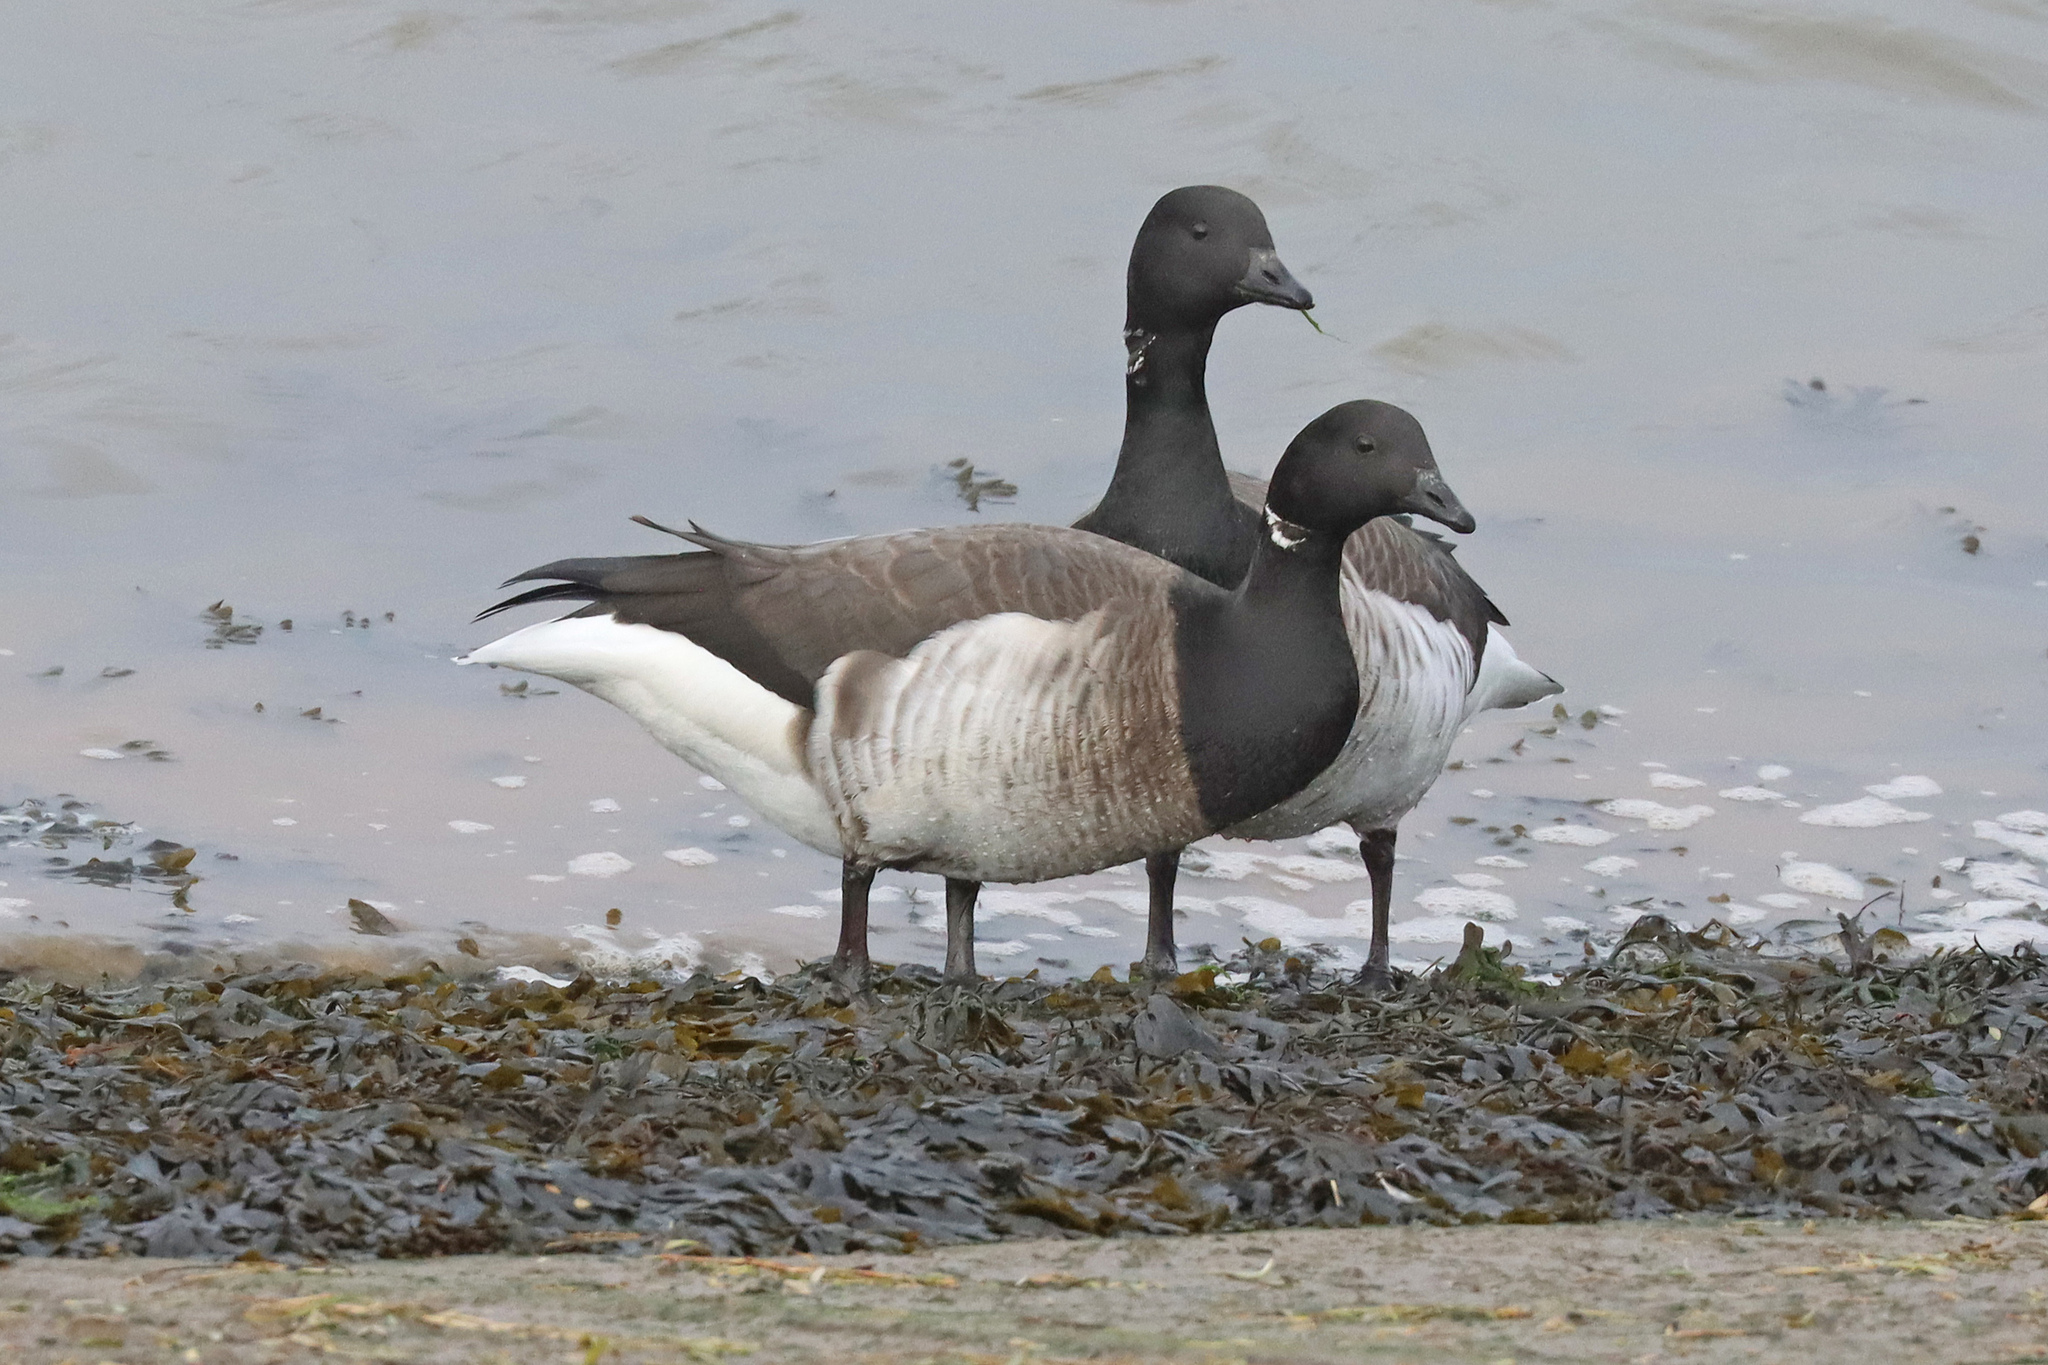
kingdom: Animalia
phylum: Chordata
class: Aves
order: Anseriformes
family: Anatidae
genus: Branta
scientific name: Branta bernicla
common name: Brant goose
